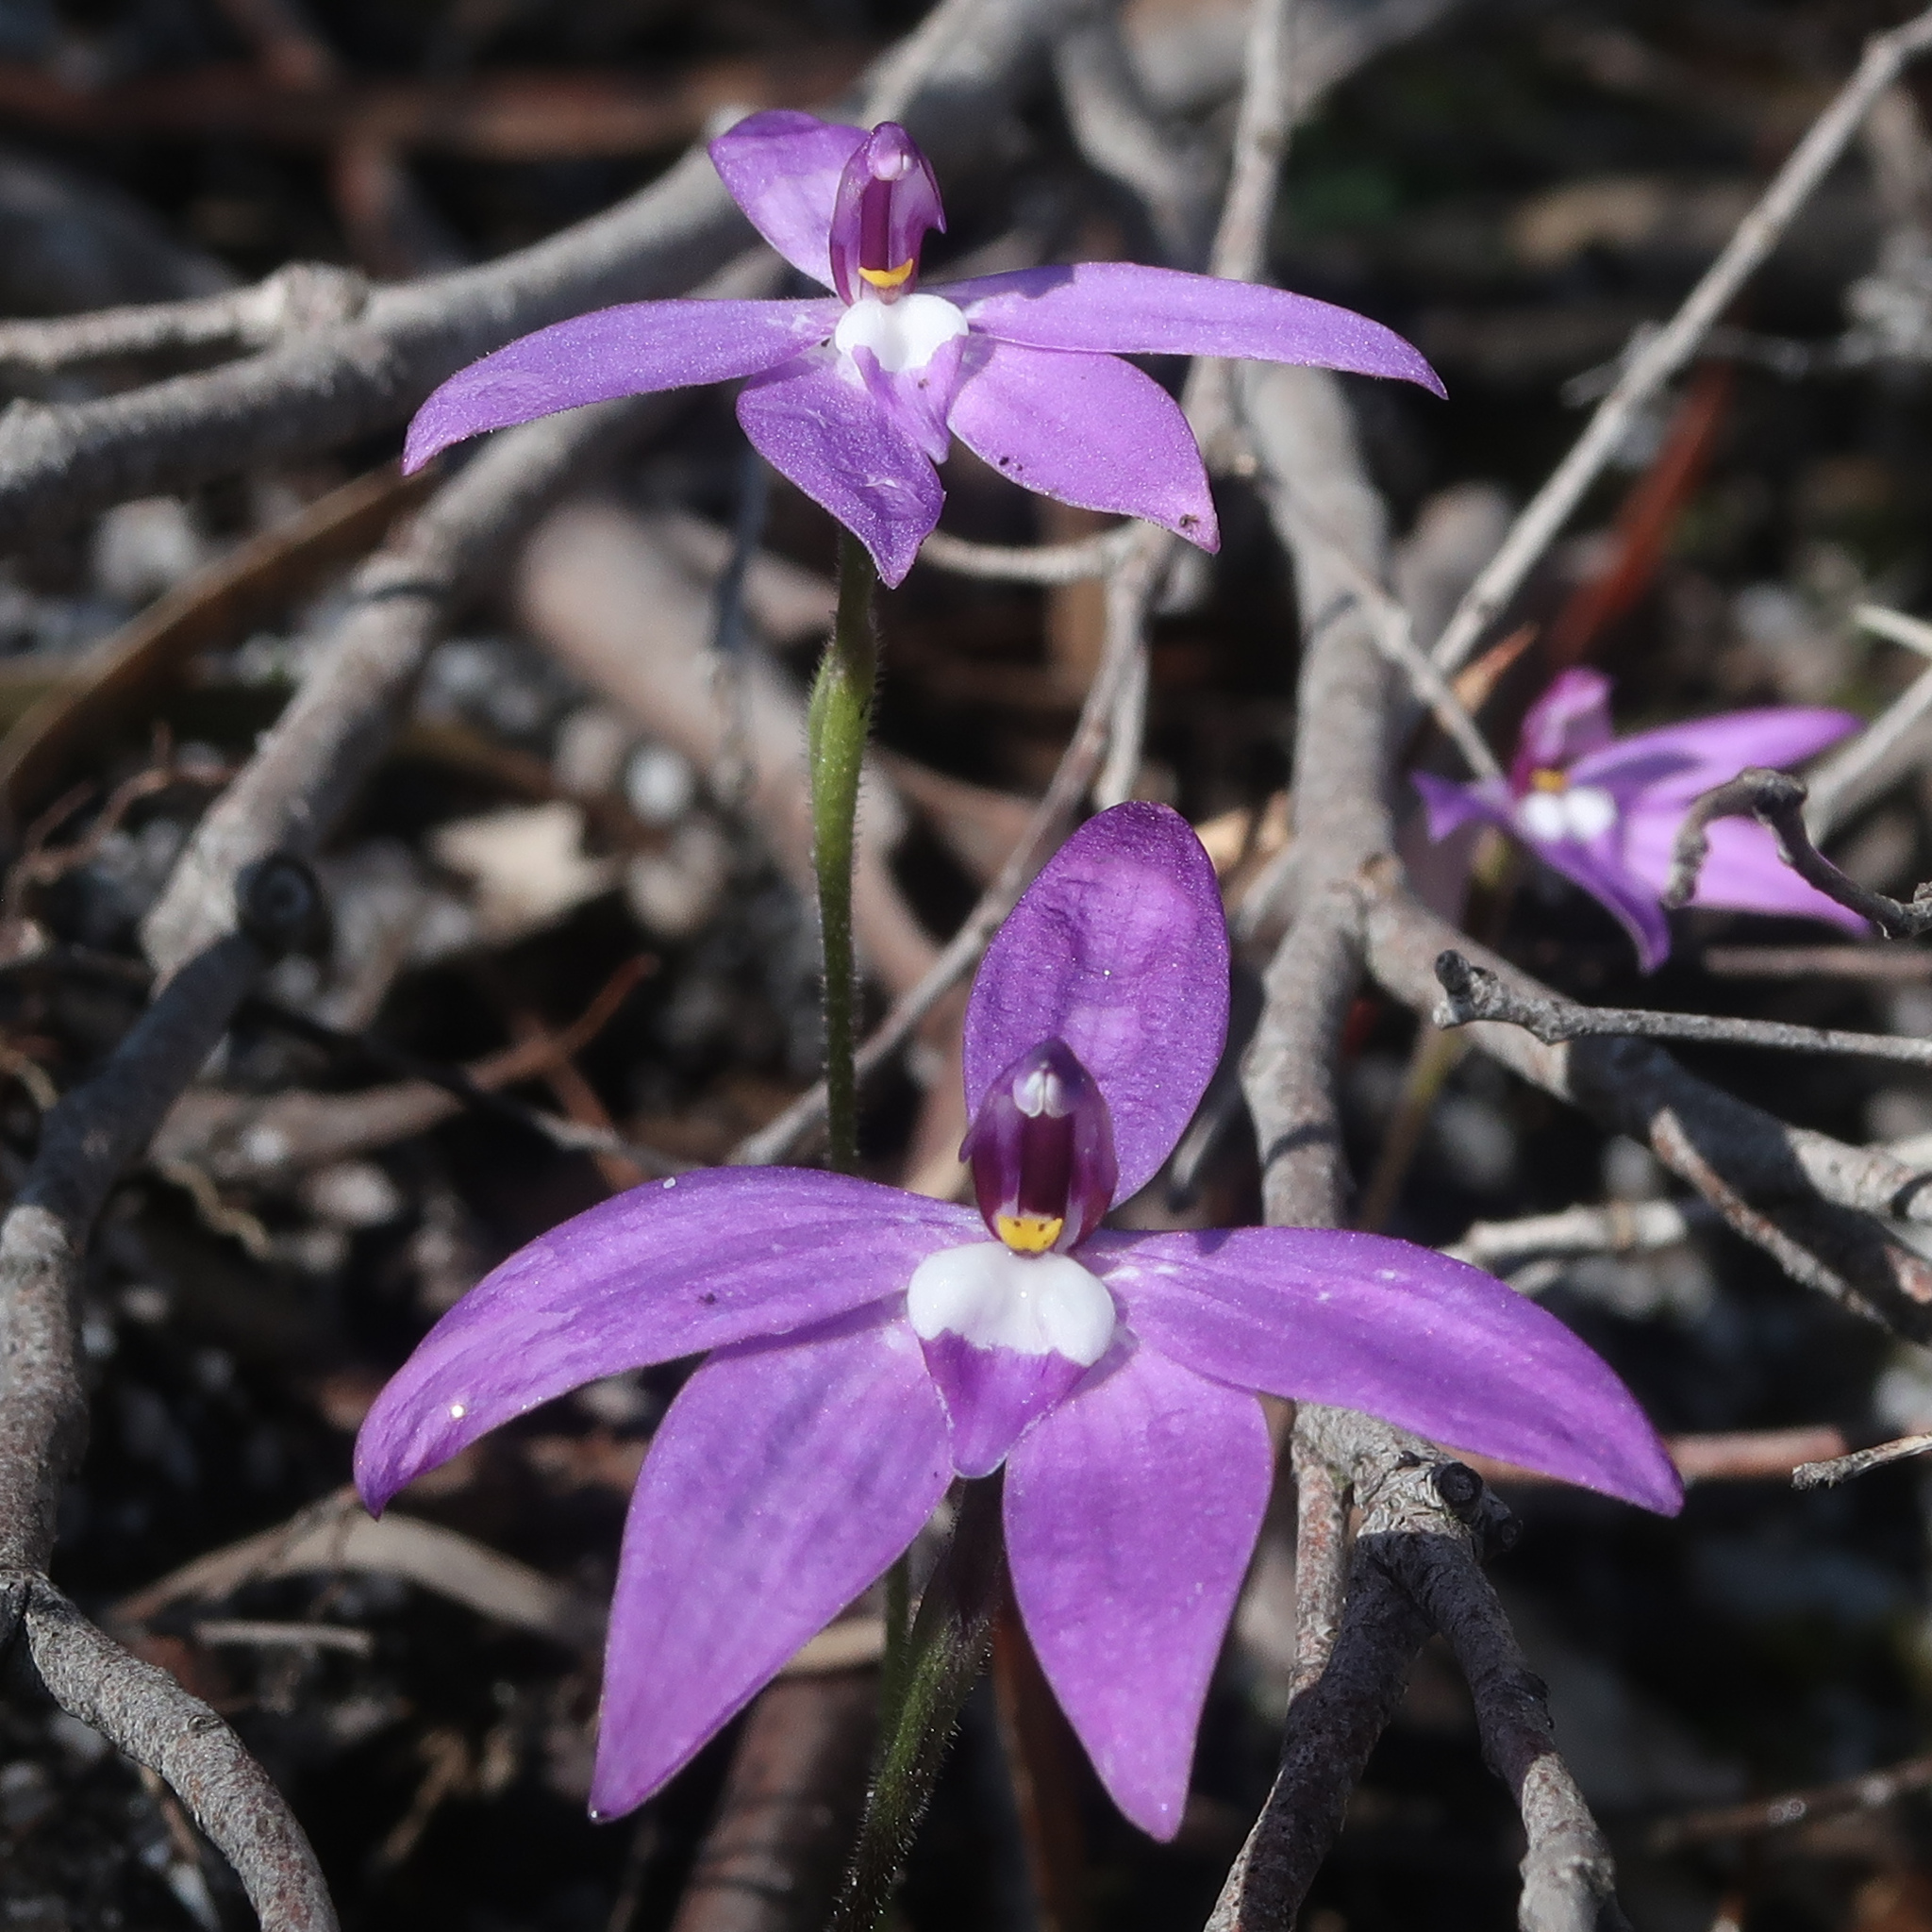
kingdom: Plantae
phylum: Tracheophyta
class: Liliopsida
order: Asparagales
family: Orchidaceae
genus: Caladenia
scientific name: Caladenia major
